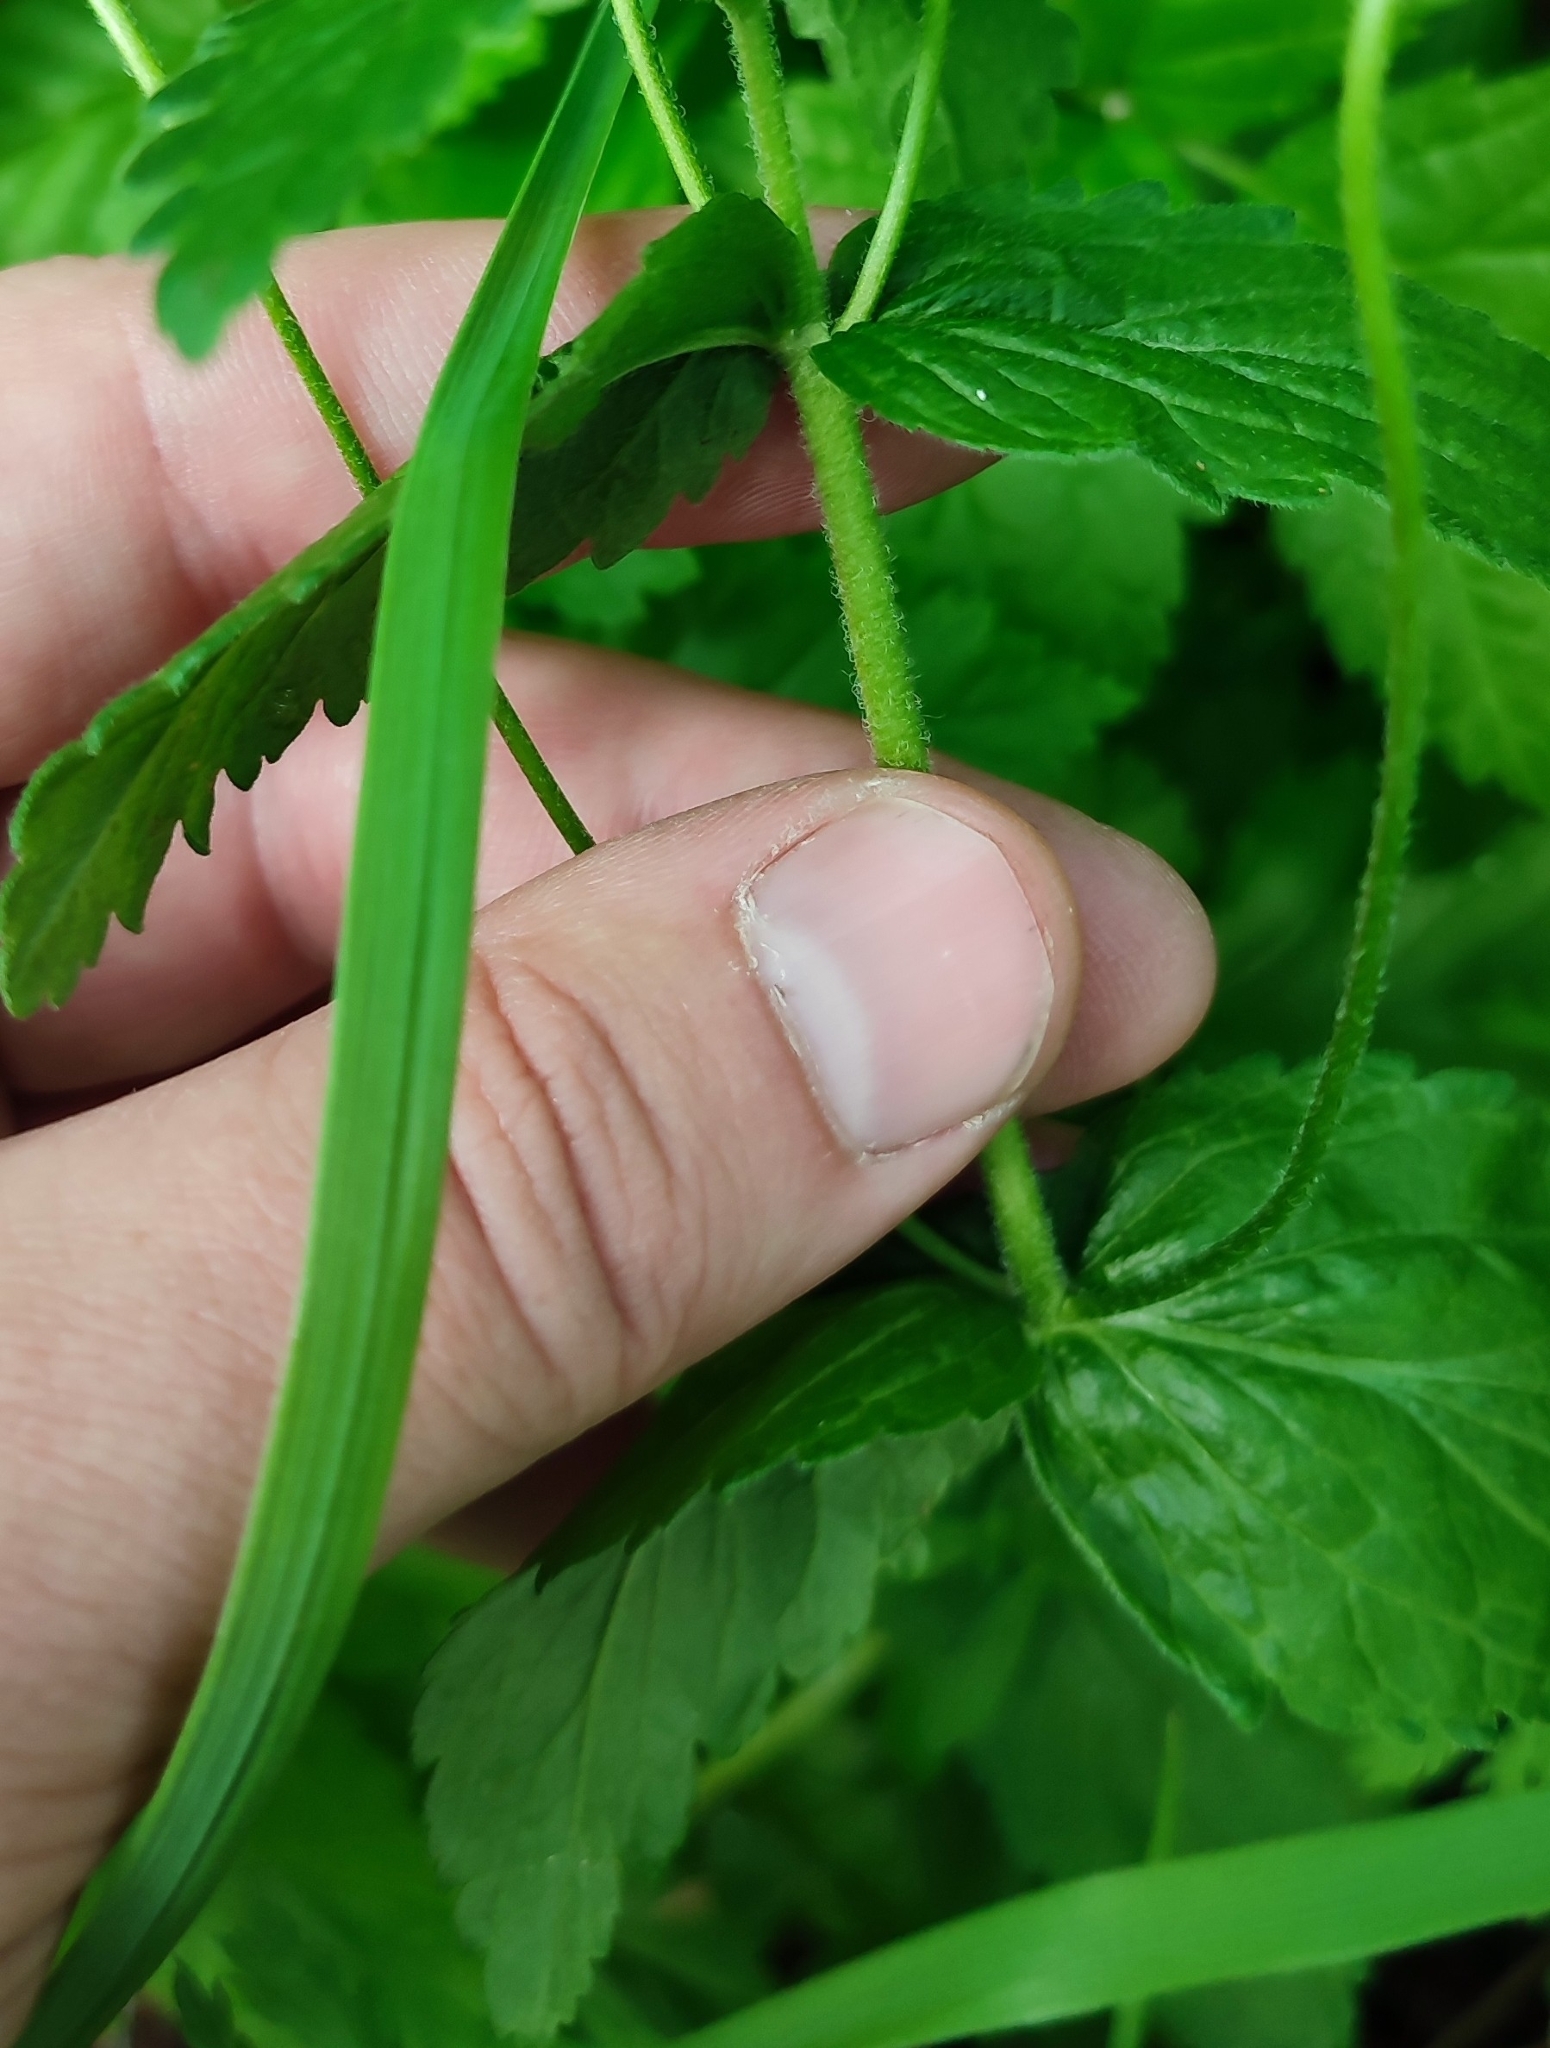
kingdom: Plantae
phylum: Tracheophyta
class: Magnoliopsida
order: Lamiales
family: Plantaginaceae
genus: Veronica
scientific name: Veronica teucrium
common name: Large speedwell
